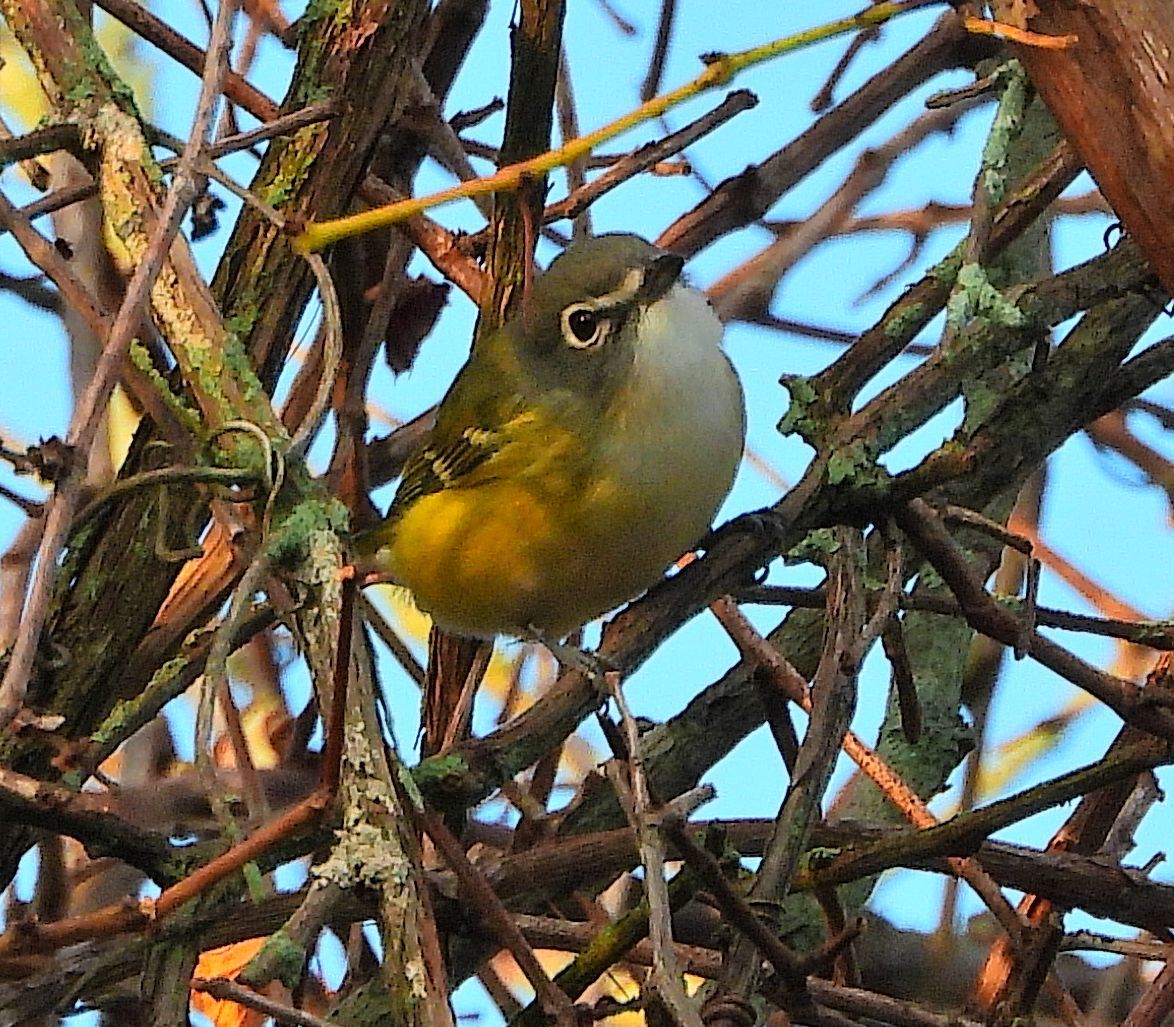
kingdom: Animalia
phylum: Chordata
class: Aves
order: Passeriformes
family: Vireonidae
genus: Vireo
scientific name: Vireo solitarius
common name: Blue-headed vireo
